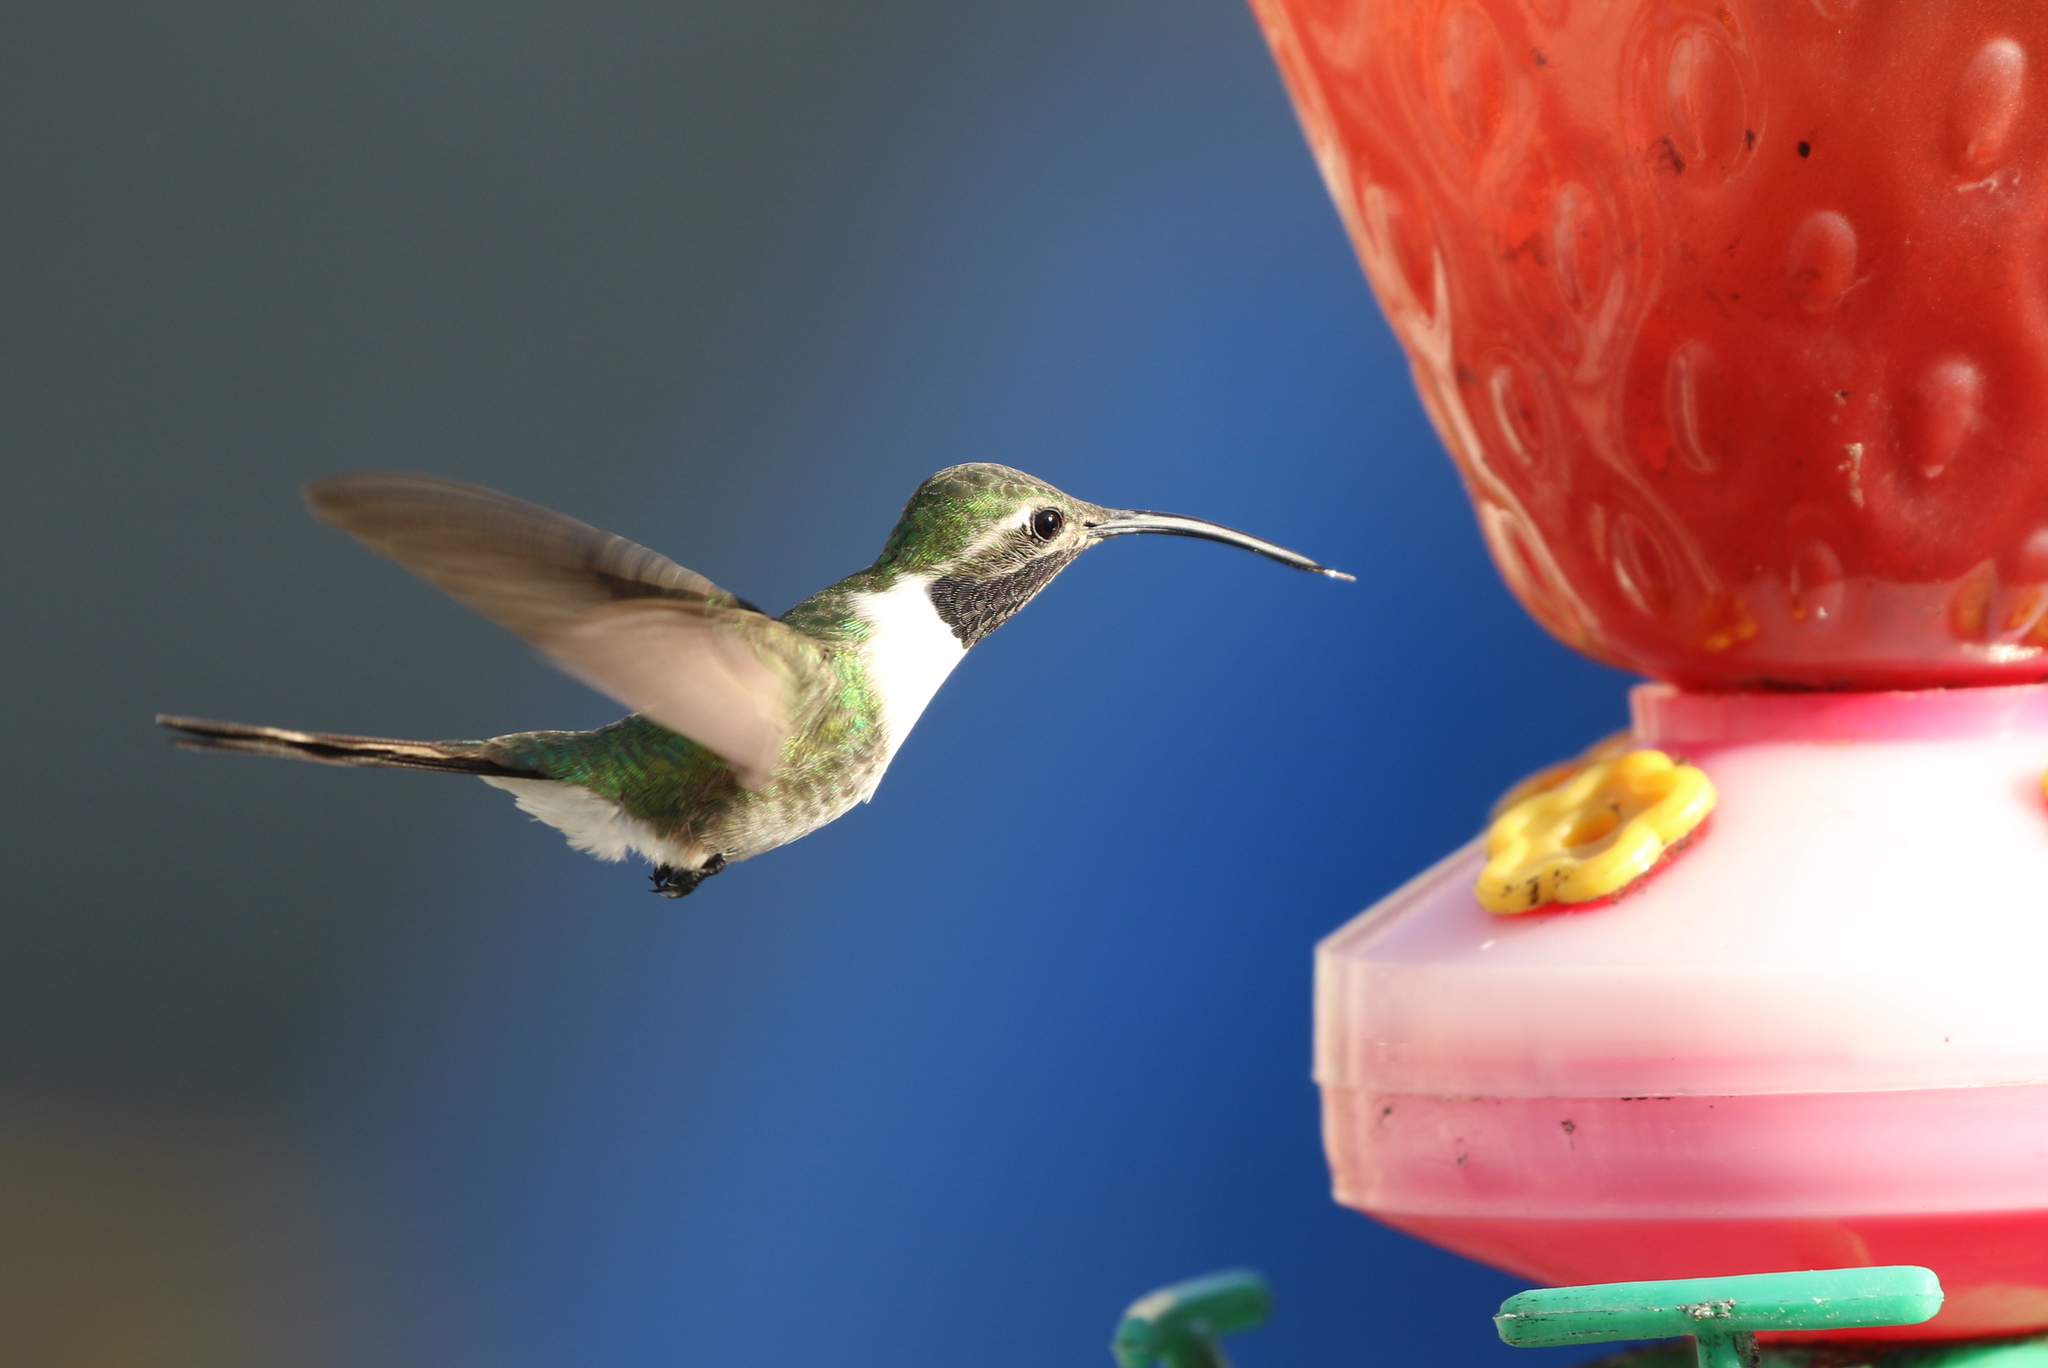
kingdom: Animalia
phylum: Chordata
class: Aves
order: Apodiformes
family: Trochilidae
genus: Doricha
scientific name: Doricha eliza
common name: Mexican sheartail
